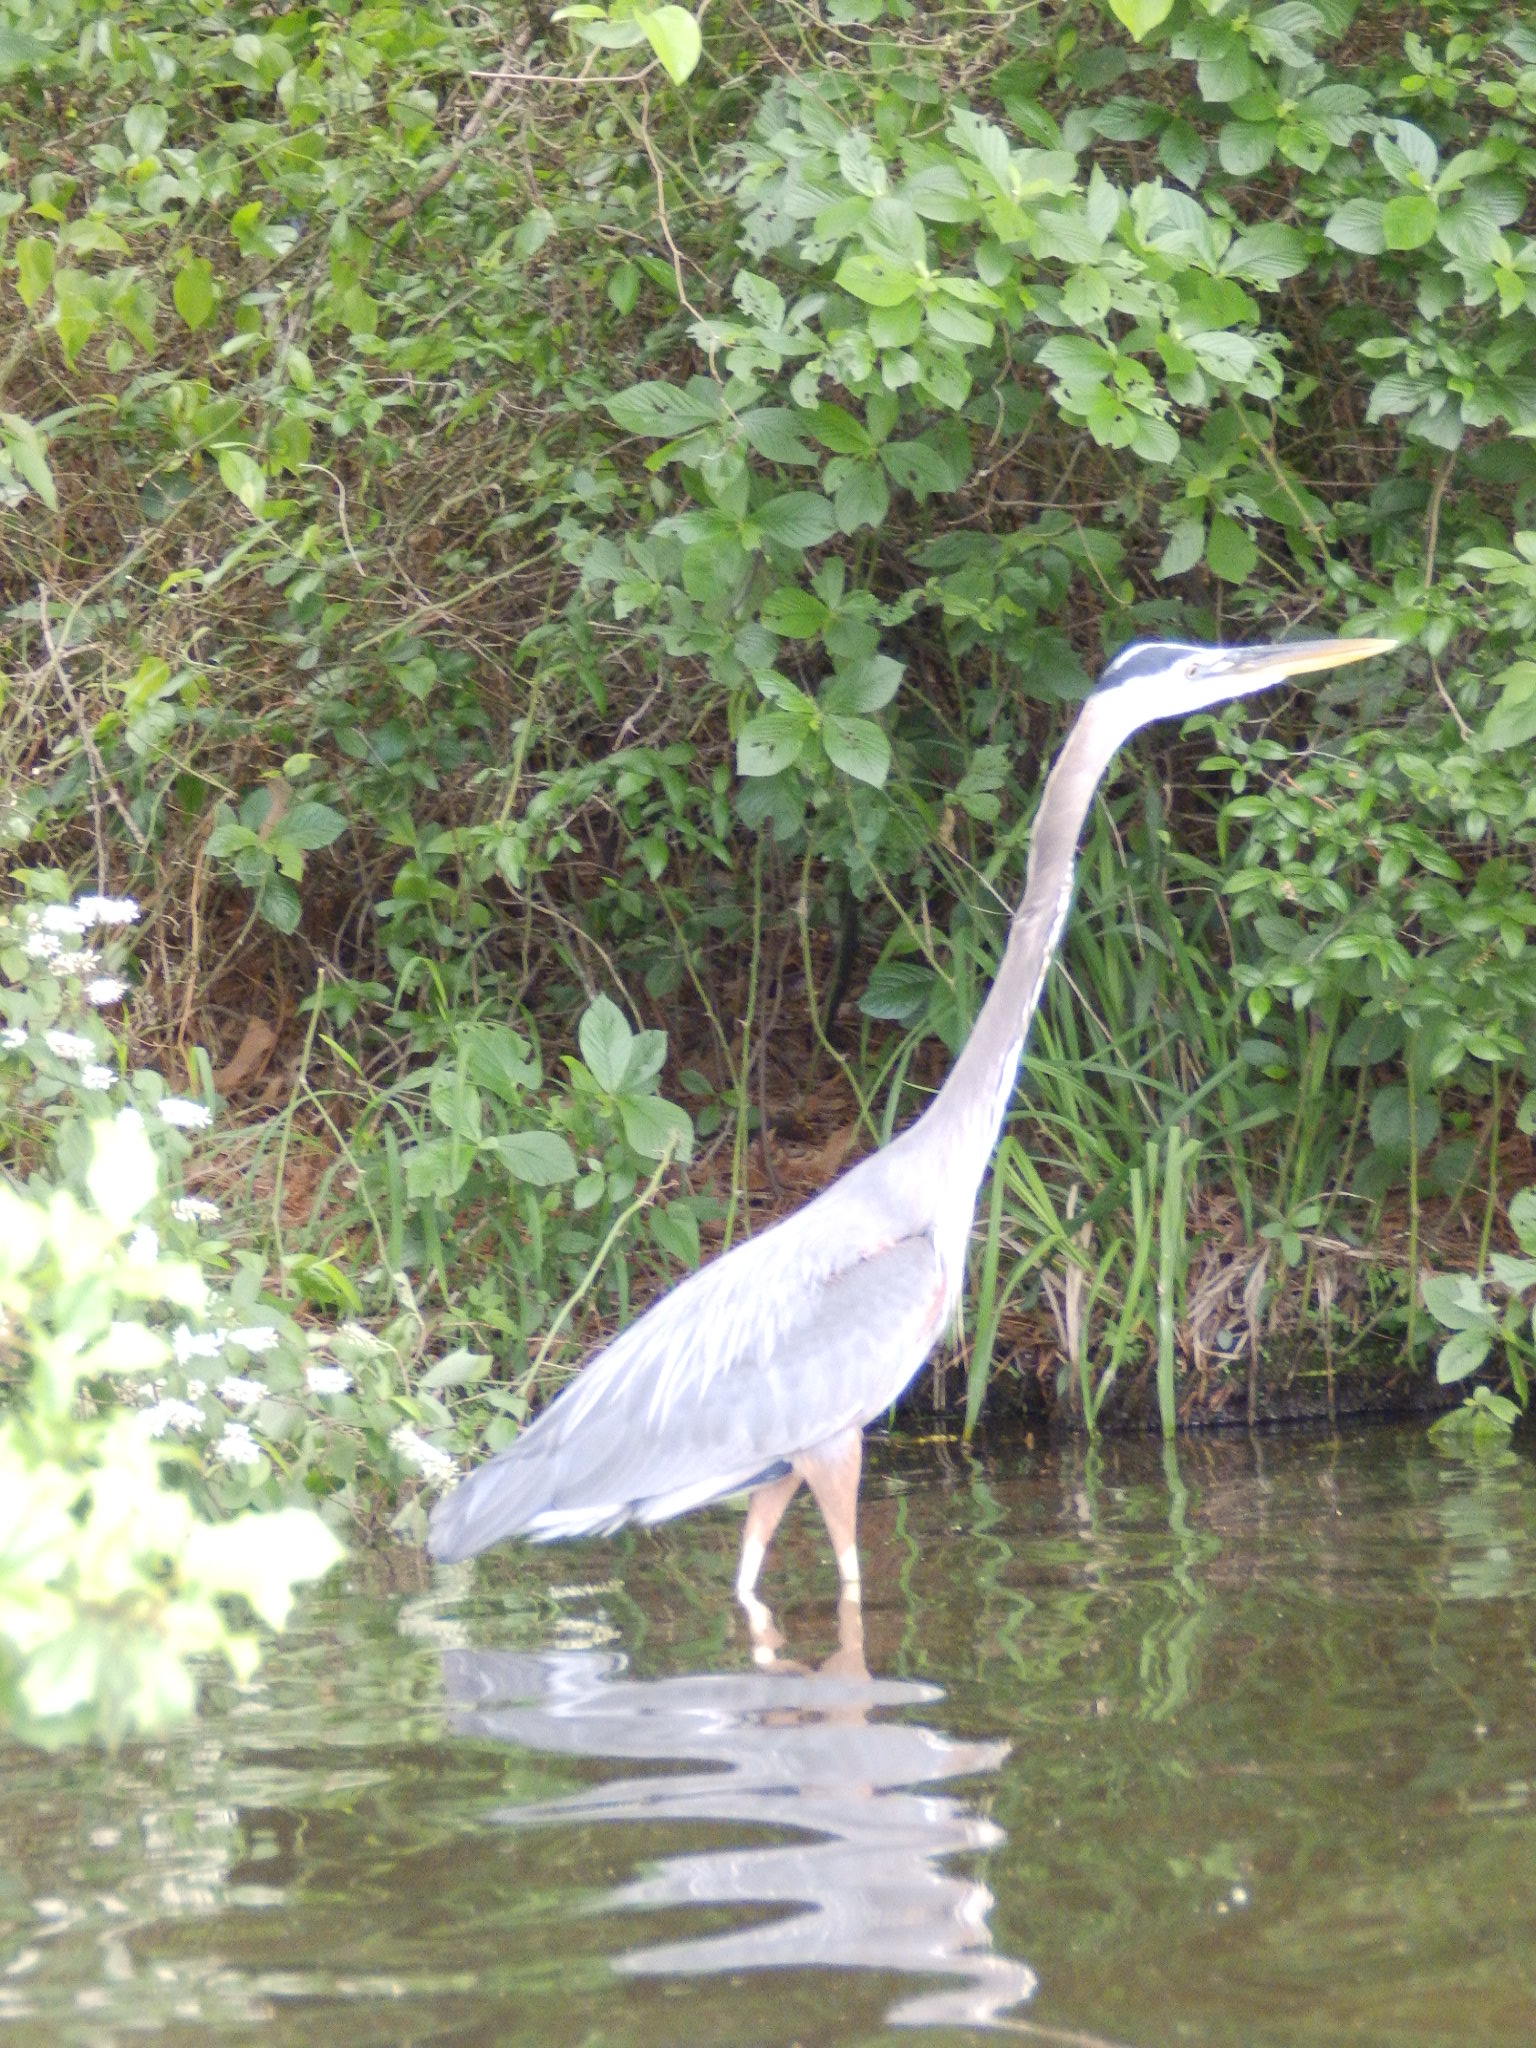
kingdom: Animalia
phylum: Chordata
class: Aves
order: Pelecaniformes
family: Ardeidae
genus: Ardea
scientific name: Ardea herodias
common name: Great blue heron
